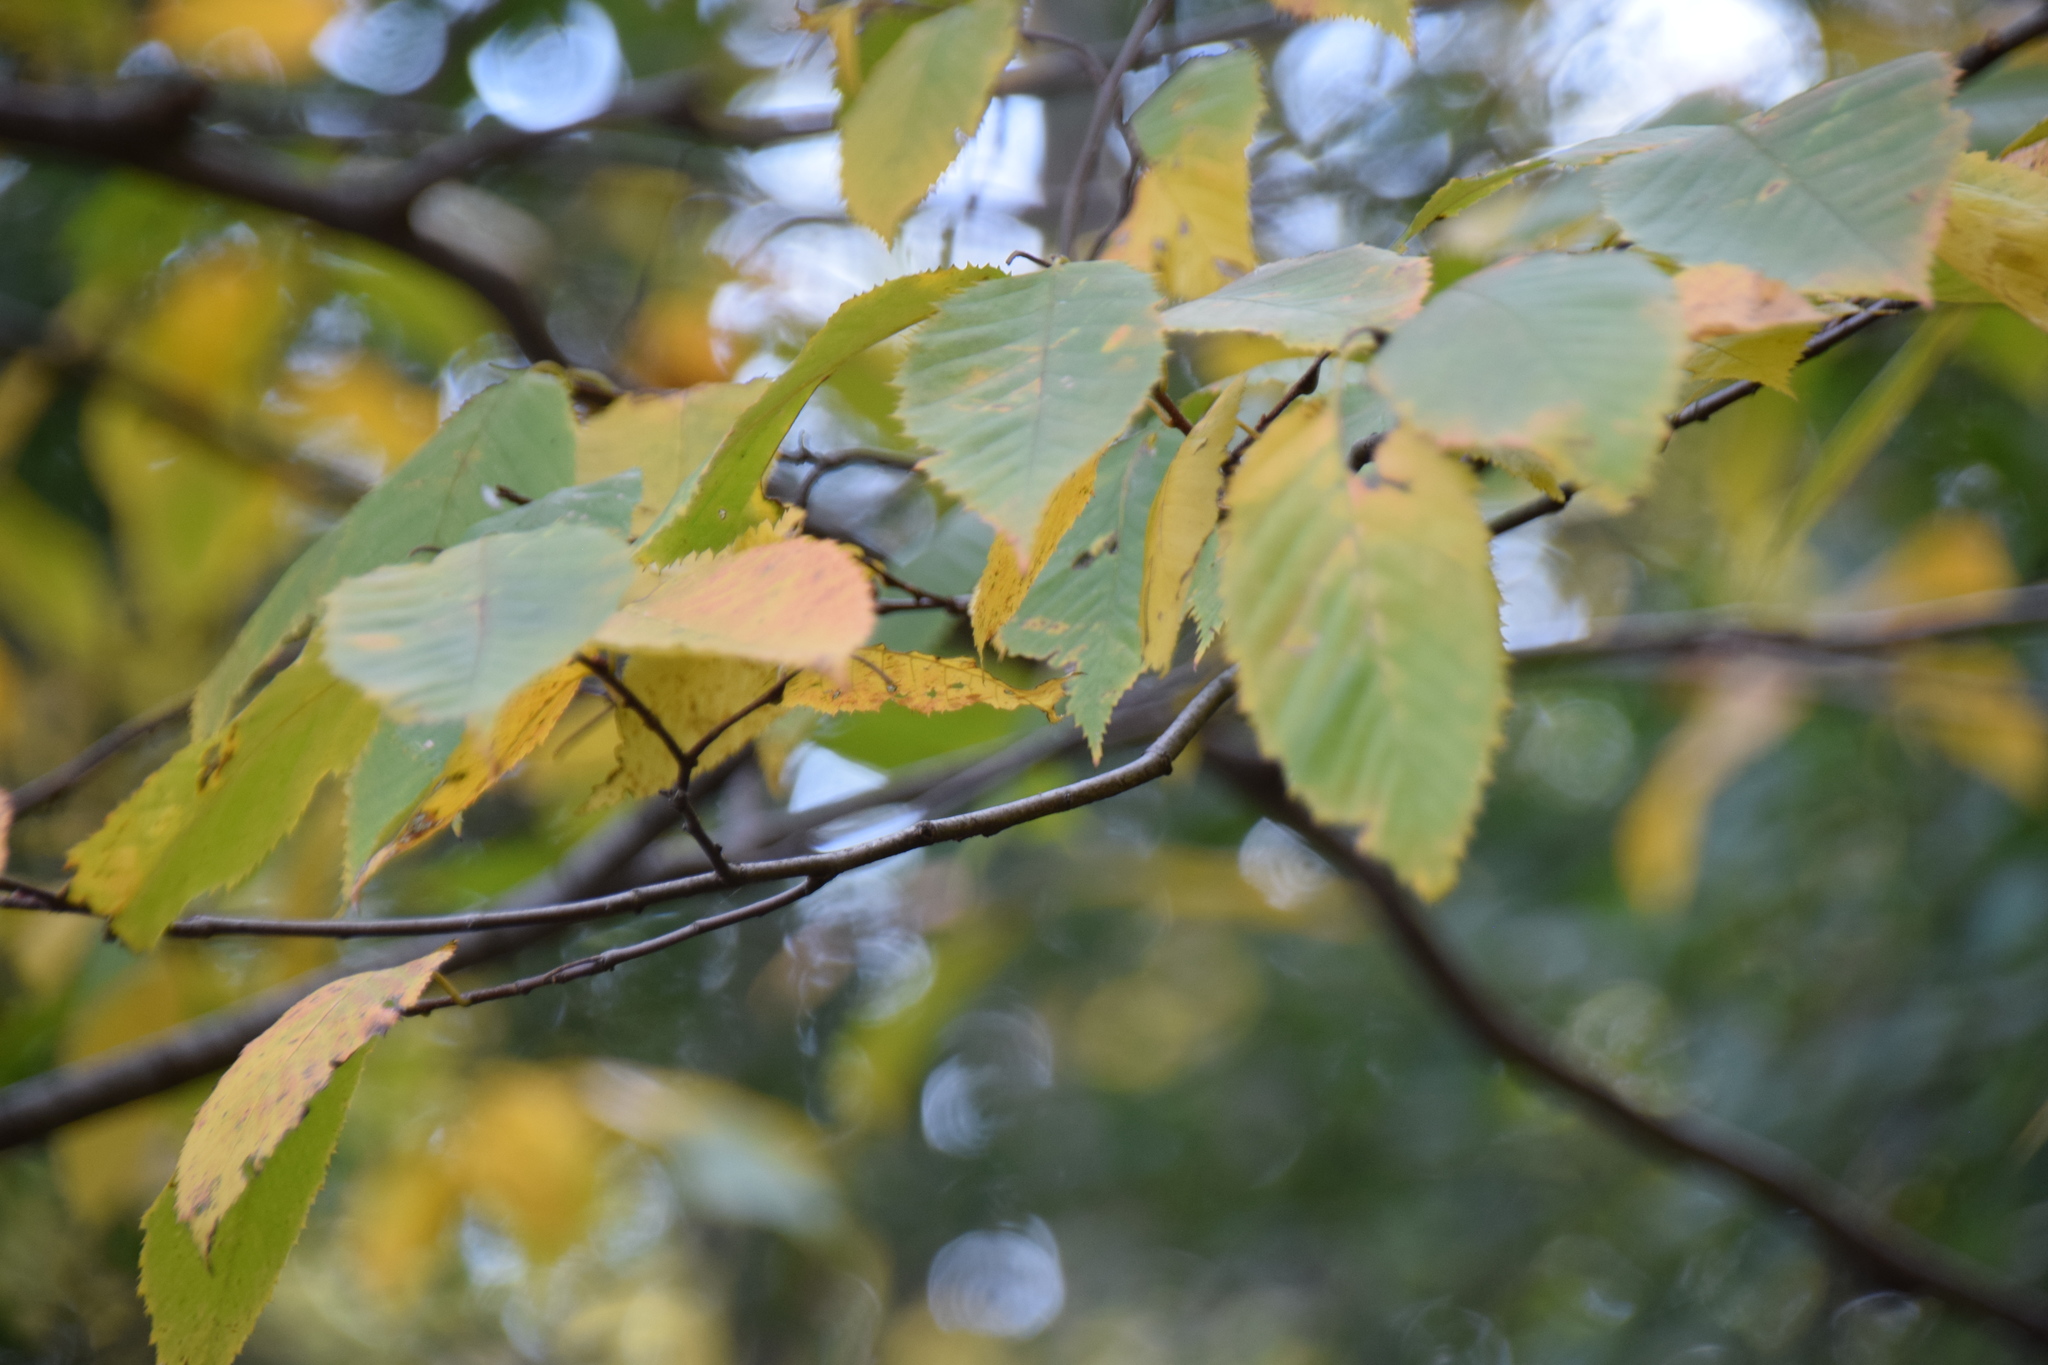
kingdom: Plantae
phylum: Tracheophyta
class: Magnoliopsida
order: Fagales
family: Betulaceae
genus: Carpinus
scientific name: Carpinus caroliniana
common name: American hornbeam
